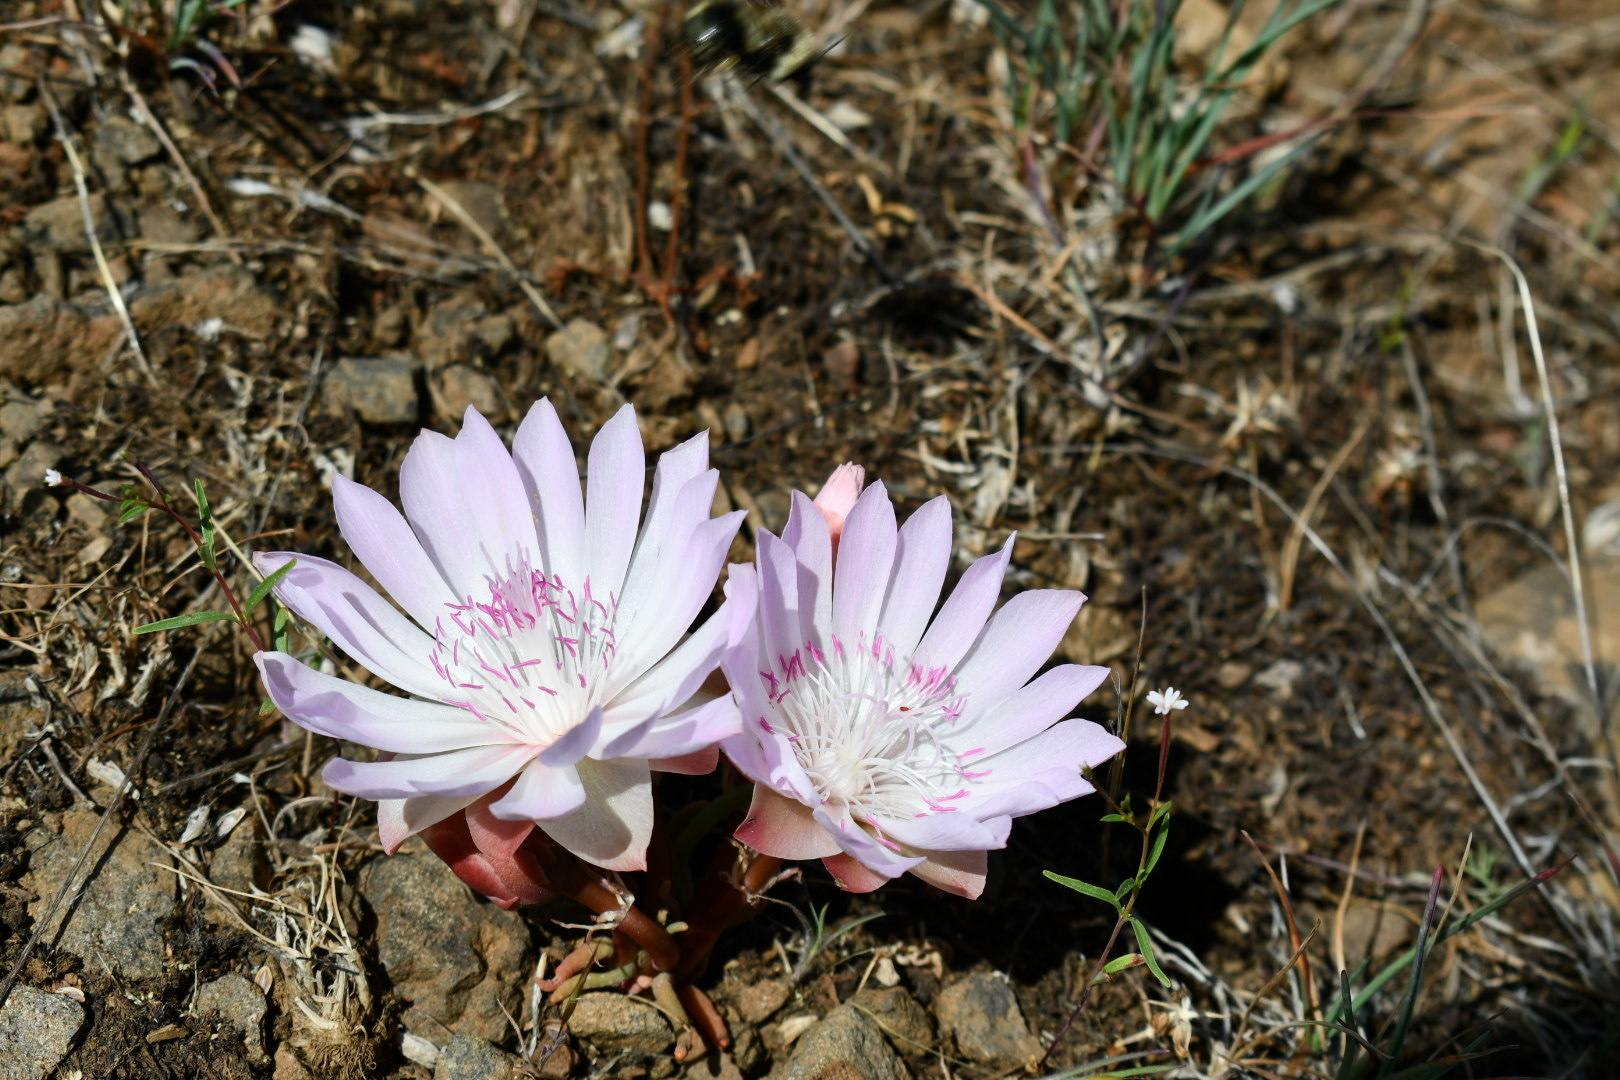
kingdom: Plantae
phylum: Tracheophyta
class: Magnoliopsida
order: Caryophyllales
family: Montiaceae
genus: Lewisia
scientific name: Lewisia rediviva
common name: Bitter-root
